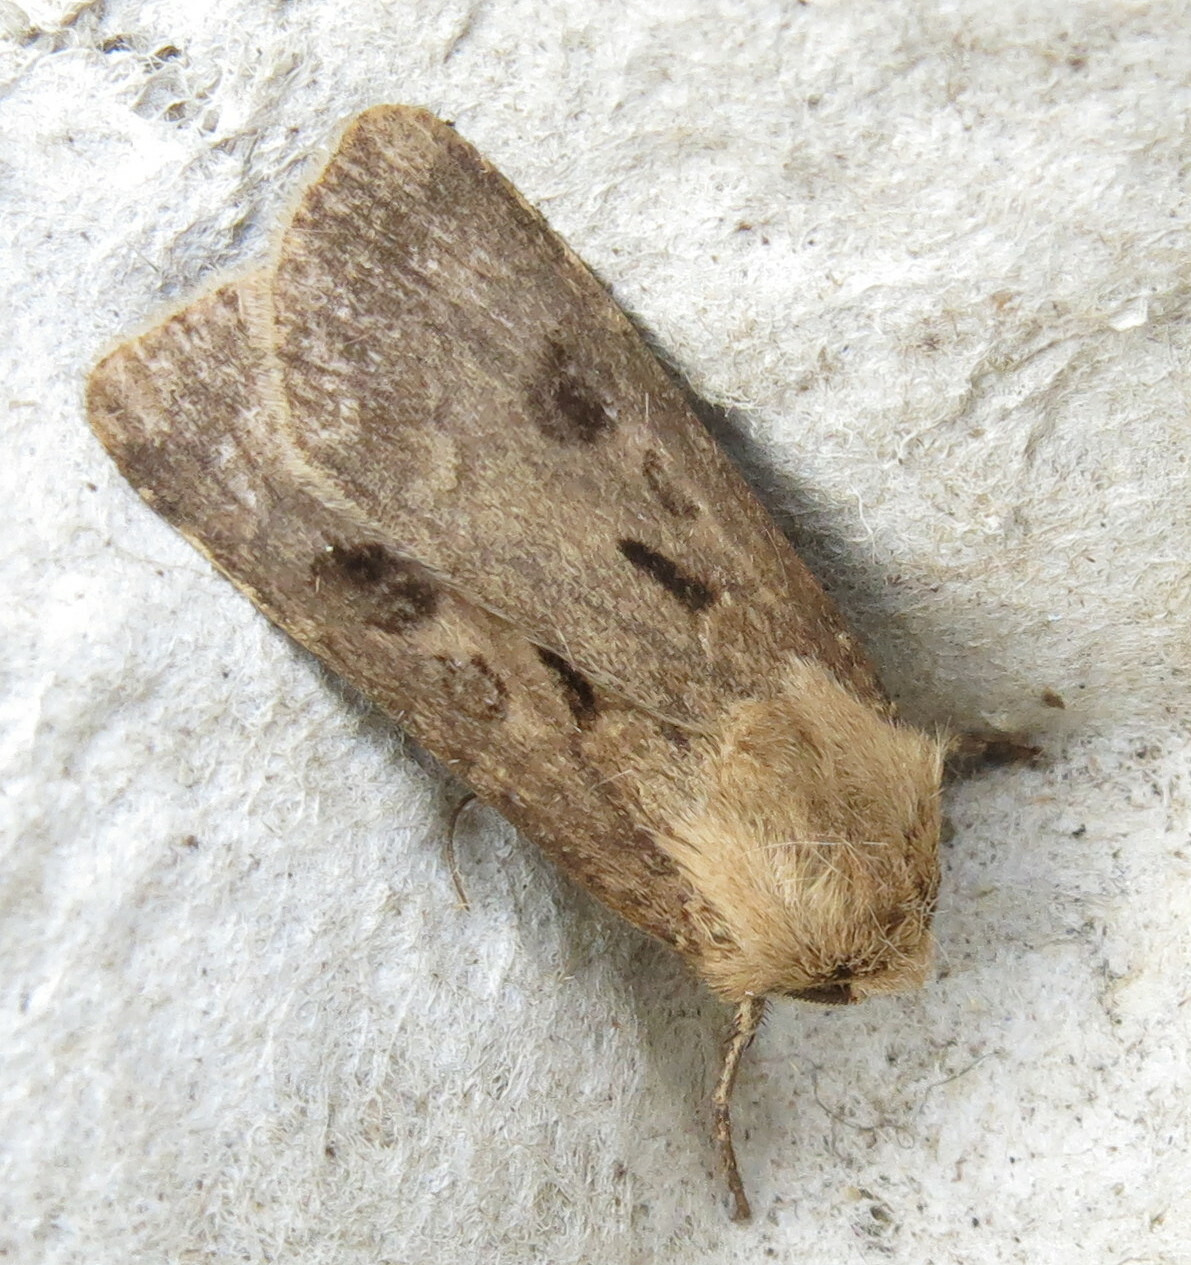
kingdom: Animalia
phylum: Arthropoda
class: Insecta
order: Lepidoptera
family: Noctuidae
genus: Agrotis
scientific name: Agrotis exclamationis
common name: Heart and dart
